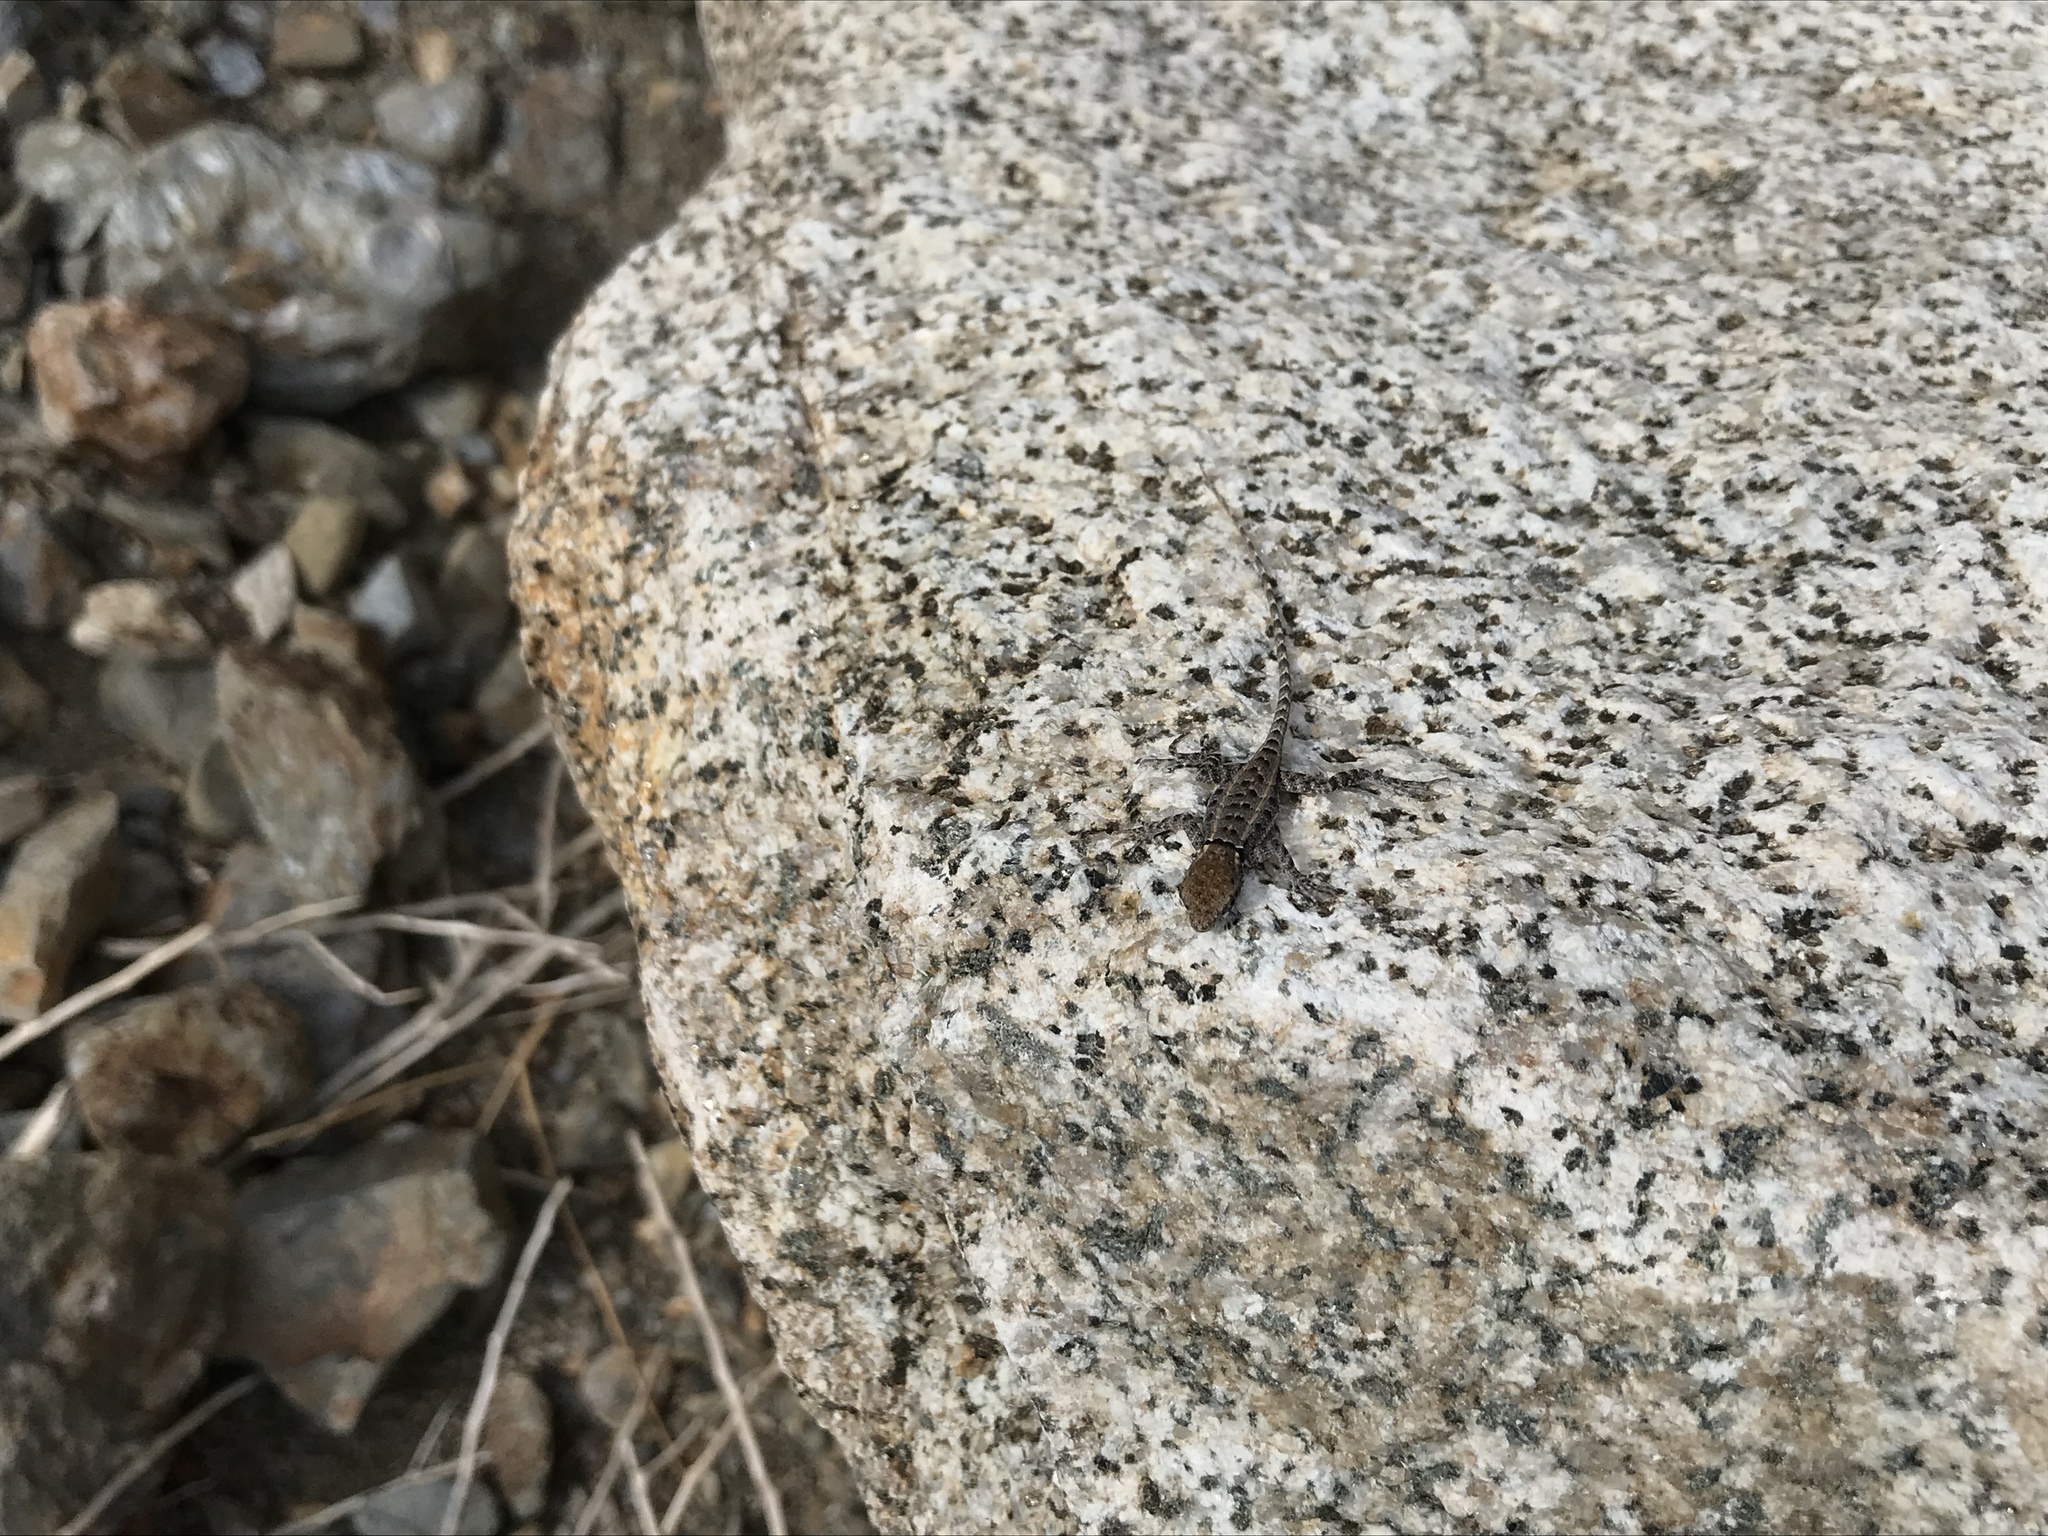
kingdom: Animalia
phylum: Chordata
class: Squamata
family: Phrynosomatidae
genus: Sceloporus
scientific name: Sceloporus grandaevus
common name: Cerralvo island sator
